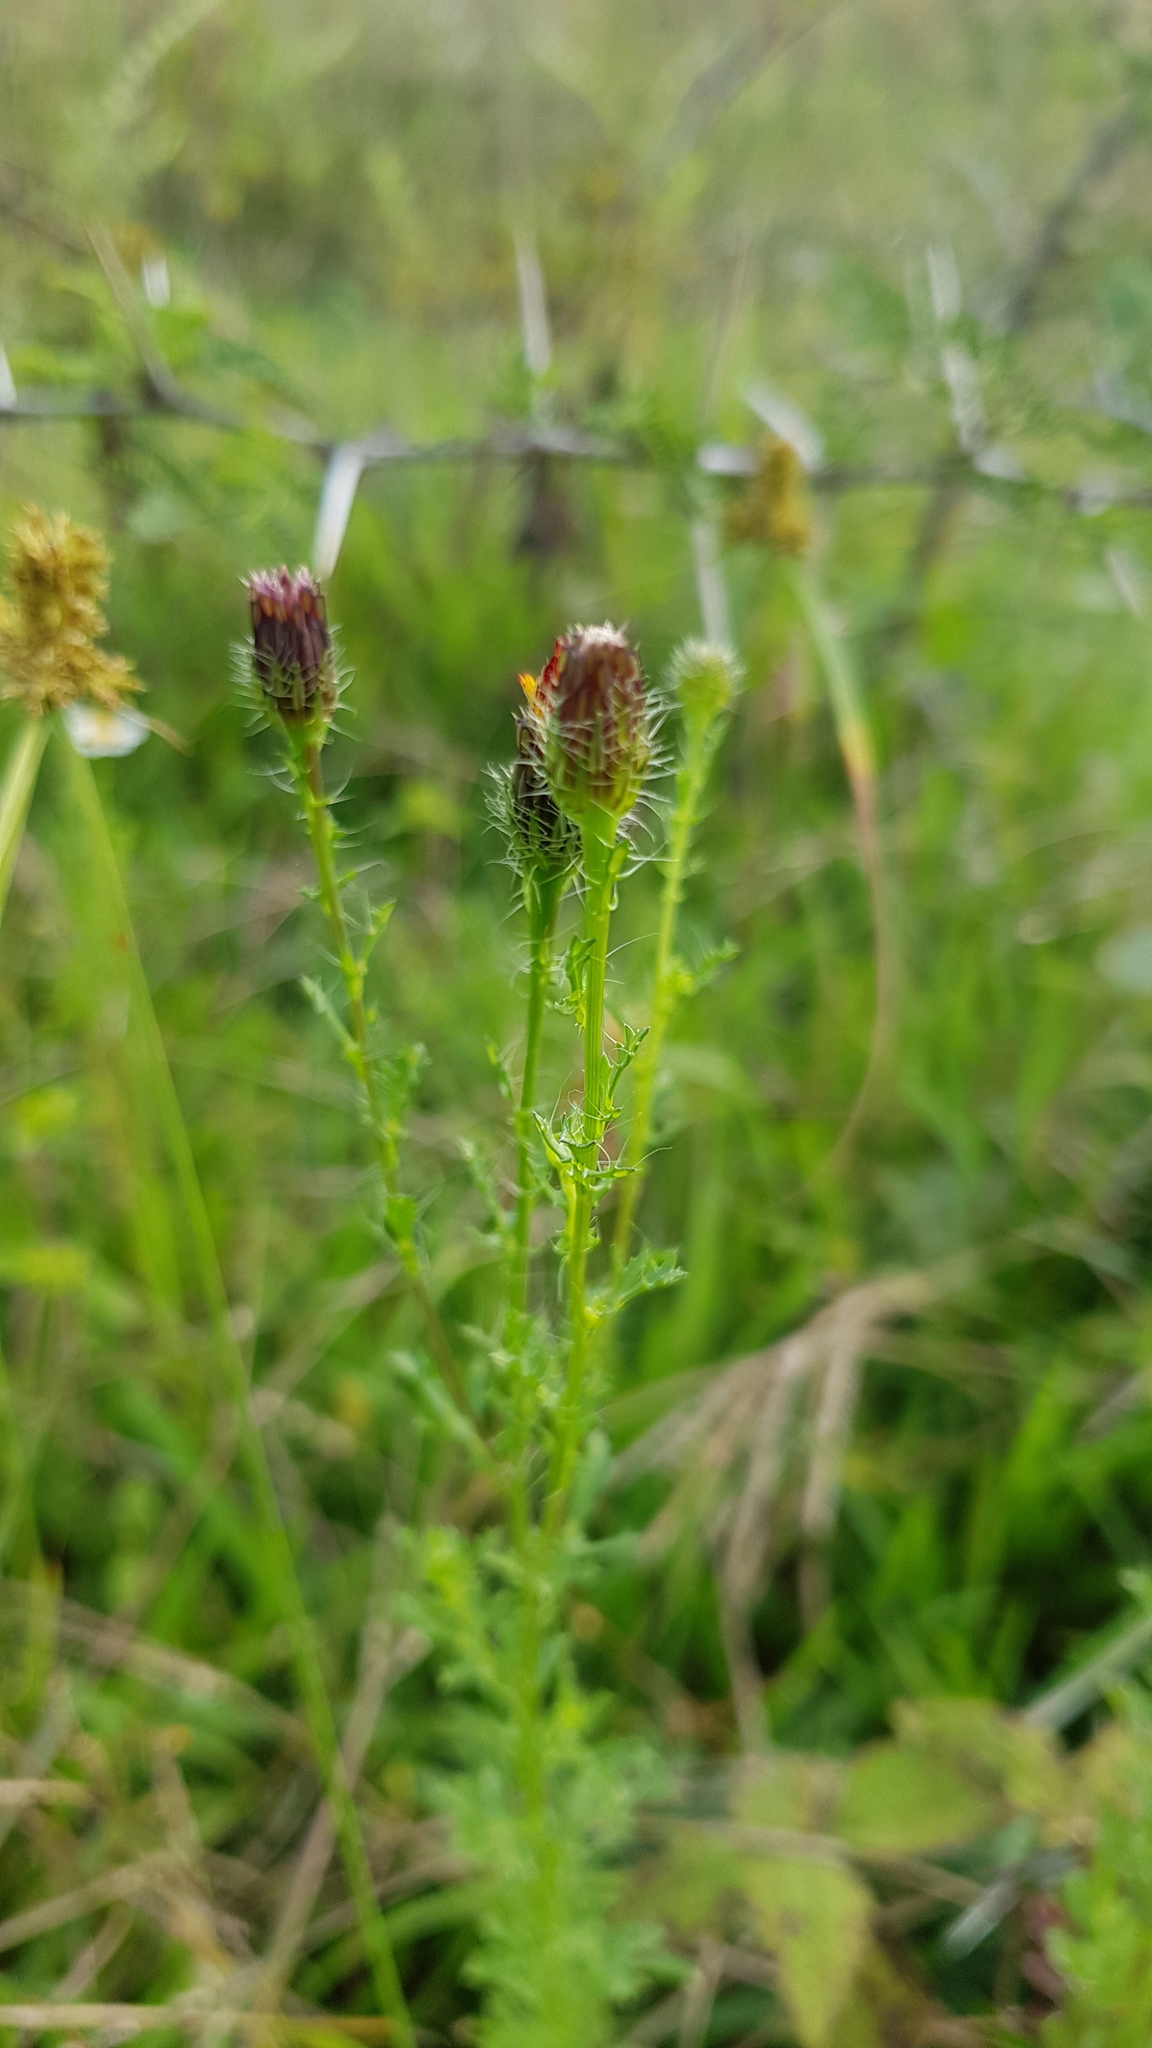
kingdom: Plantae
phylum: Tracheophyta
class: Magnoliopsida
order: Asterales
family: Asteraceae
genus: Adenophyllum
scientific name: Adenophyllum porophyllum
